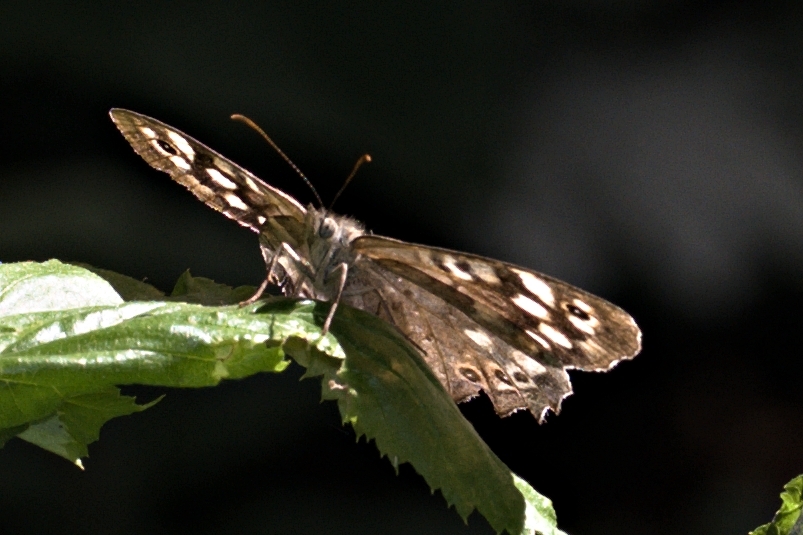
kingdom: Animalia
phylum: Arthropoda
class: Insecta
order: Lepidoptera
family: Nymphalidae
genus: Pararge
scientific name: Pararge aegeria
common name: Speckled wood
